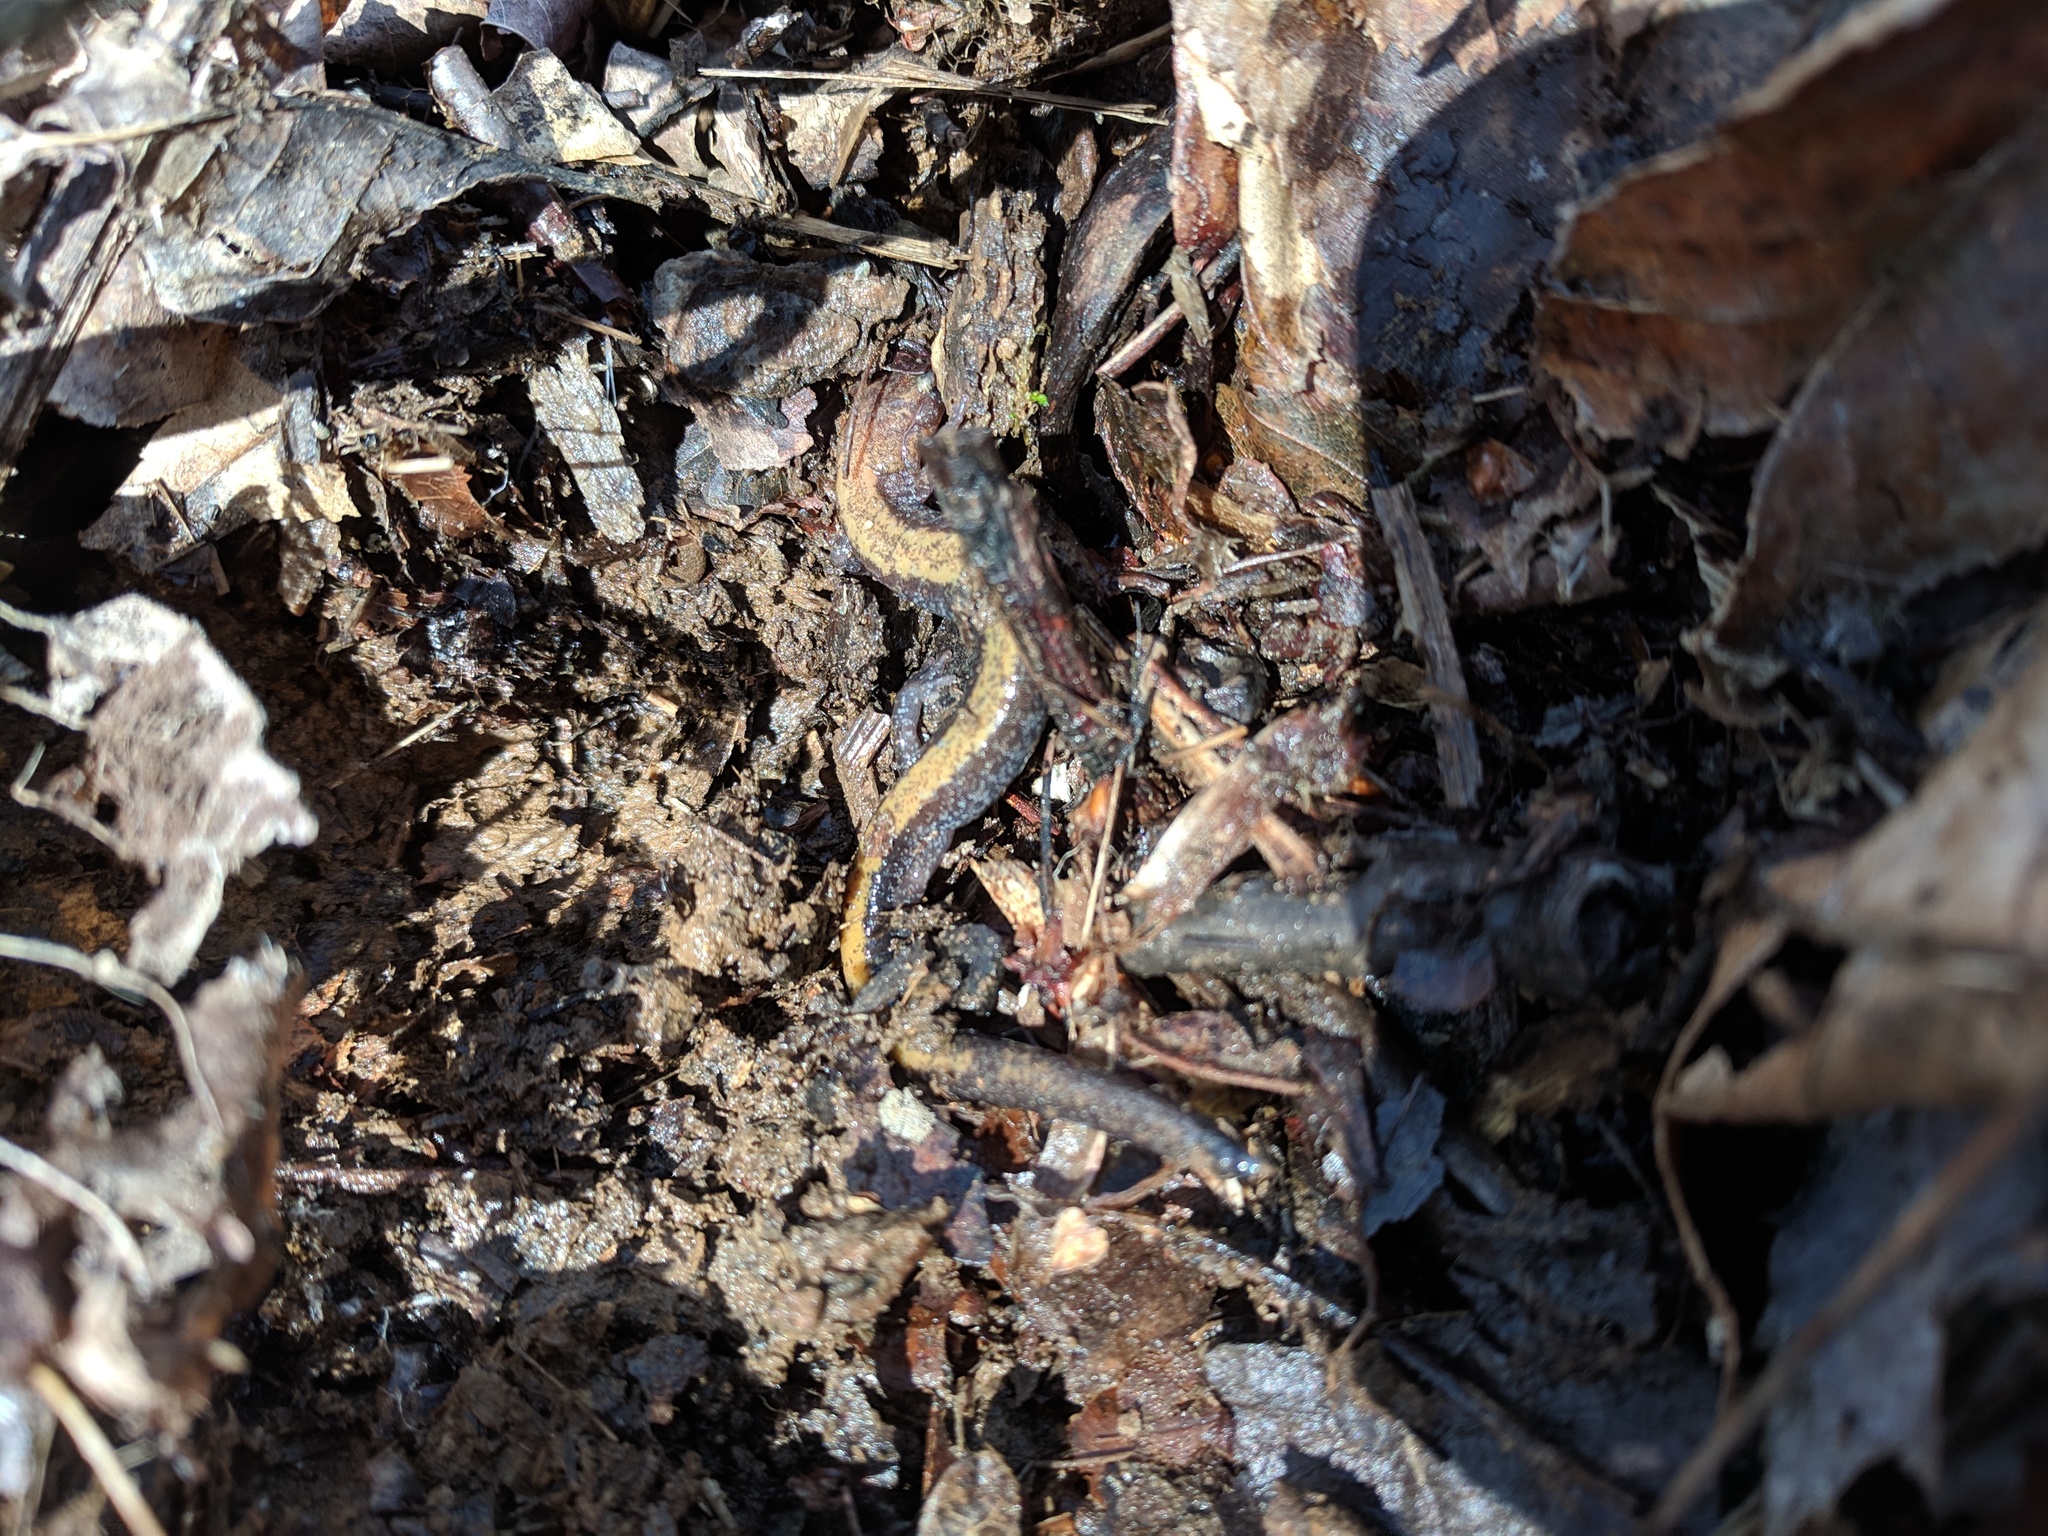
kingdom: Animalia
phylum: Chordata
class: Amphibia
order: Caudata
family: Plethodontidae
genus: Plethodon
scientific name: Plethodon cinereus
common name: Redback salamander
